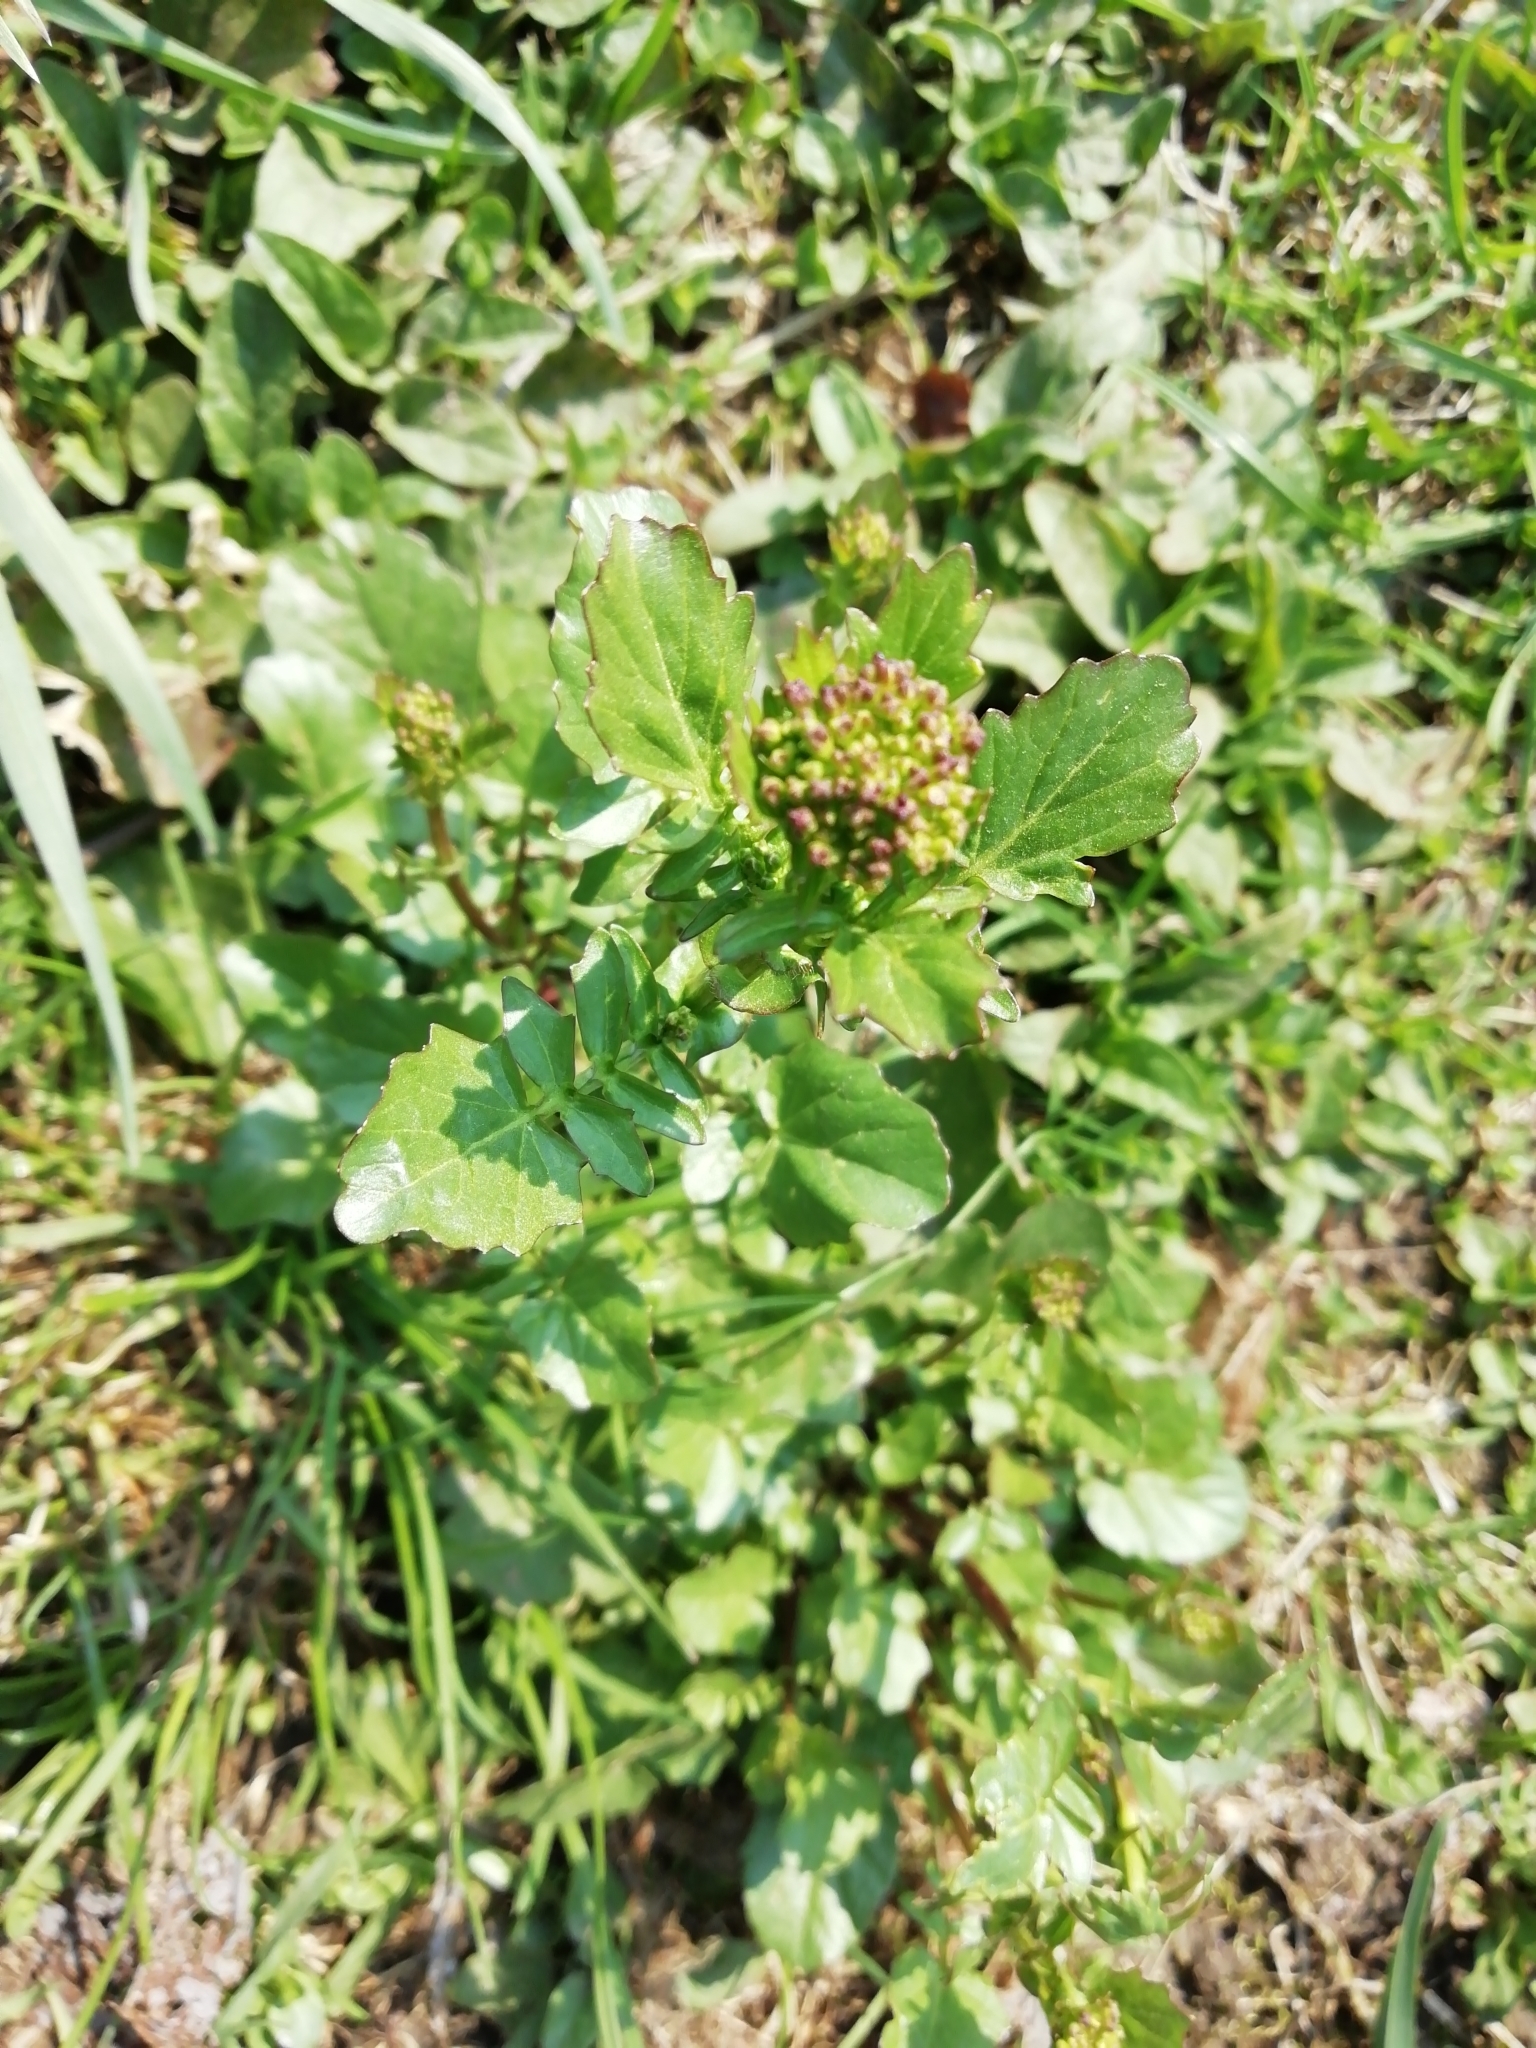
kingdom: Plantae
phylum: Tracheophyta
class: Magnoliopsida
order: Brassicales
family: Brassicaceae
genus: Barbarea
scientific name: Barbarea vulgaris
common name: Cressy-greens
